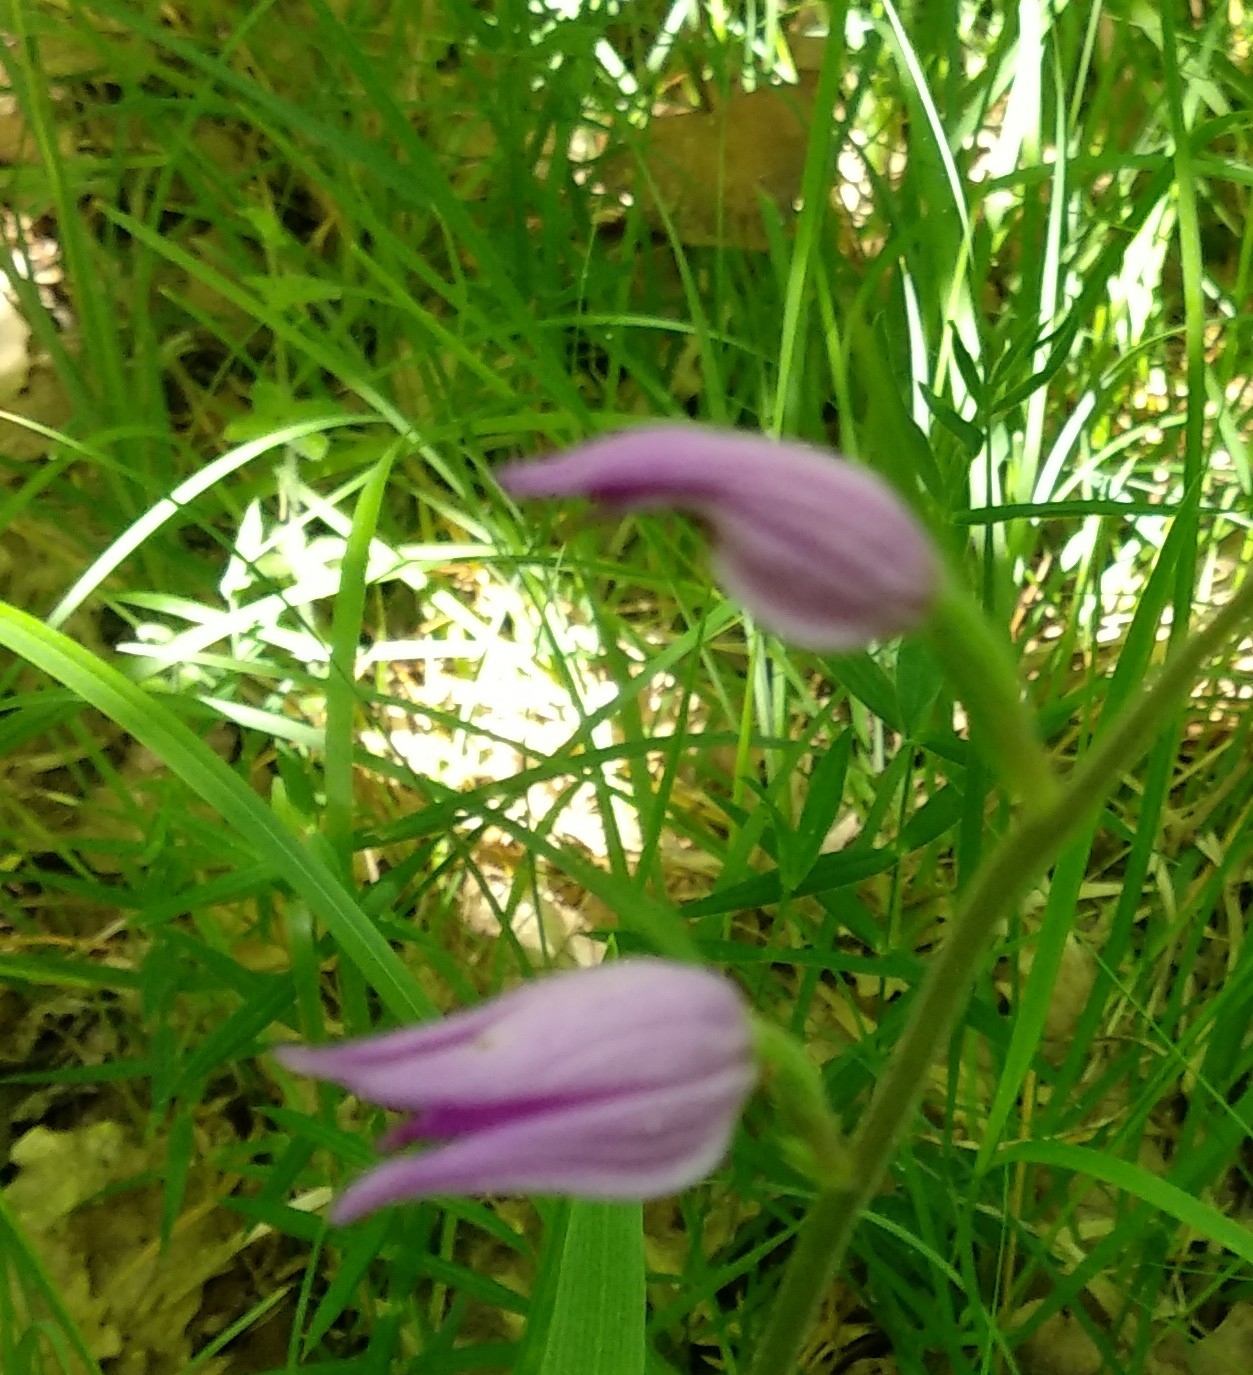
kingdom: Plantae
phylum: Tracheophyta
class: Liliopsida
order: Asparagales
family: Orchidaceae
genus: Cephalanthera
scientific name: Cephalanthera rubra
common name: Red helleborine
